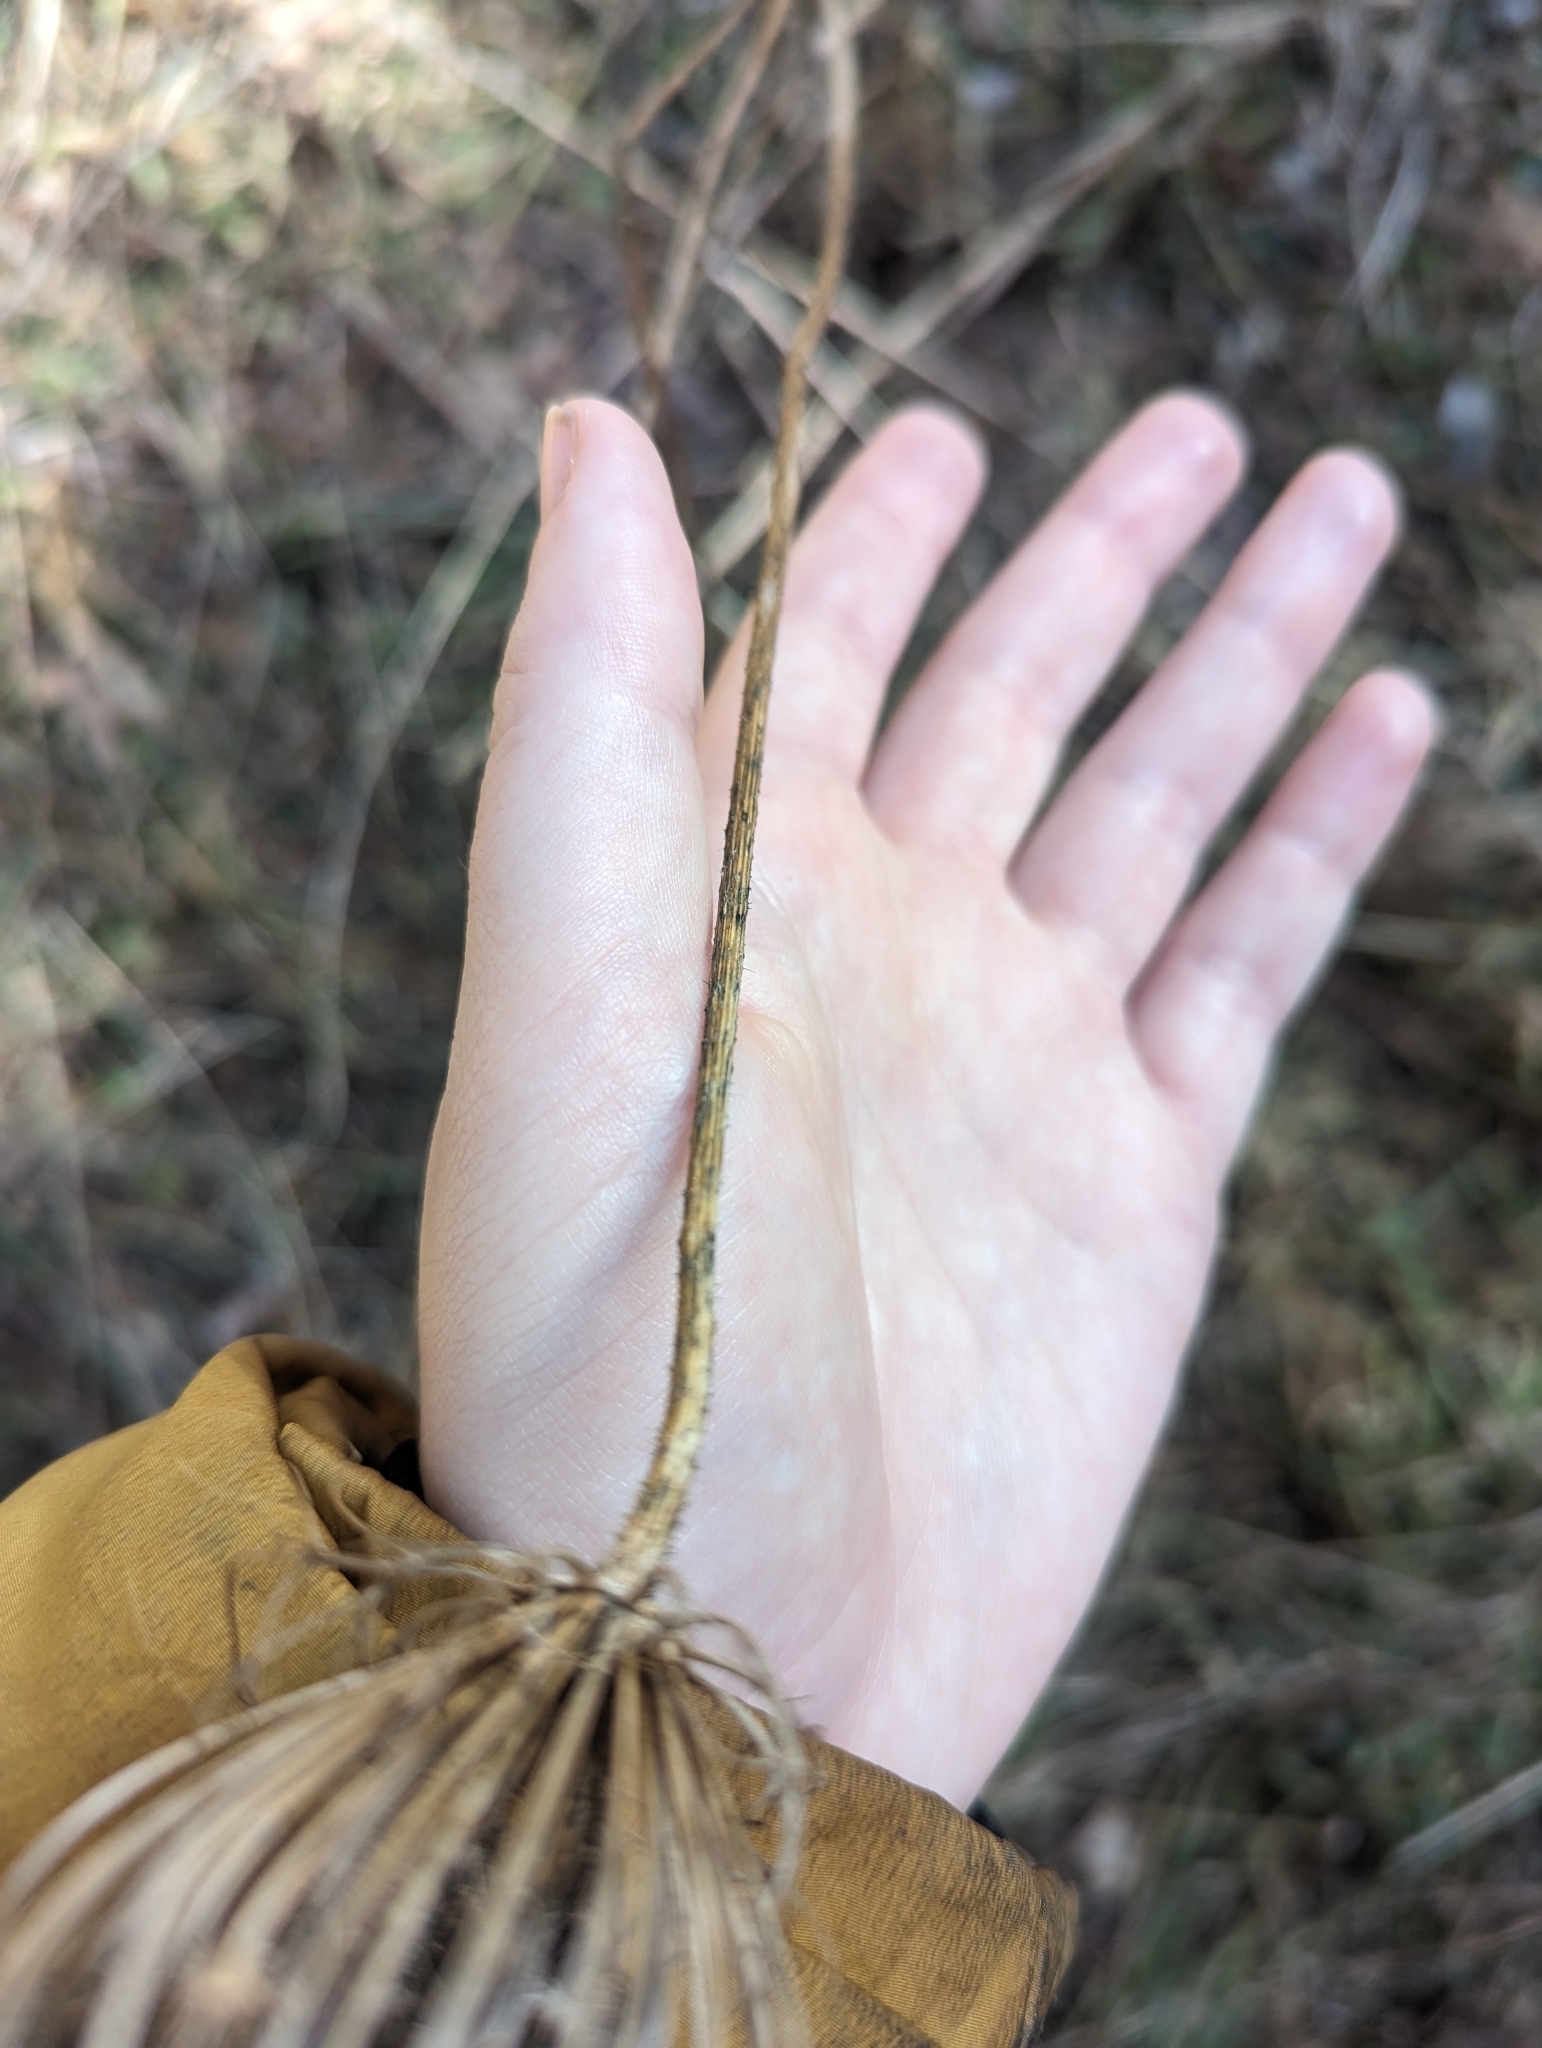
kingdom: Plantae
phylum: Tracheophyta
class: Magnoliopsida
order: Apiales
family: Apiaceae
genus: Daucus
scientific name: Daucus carota
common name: Wild carrot
